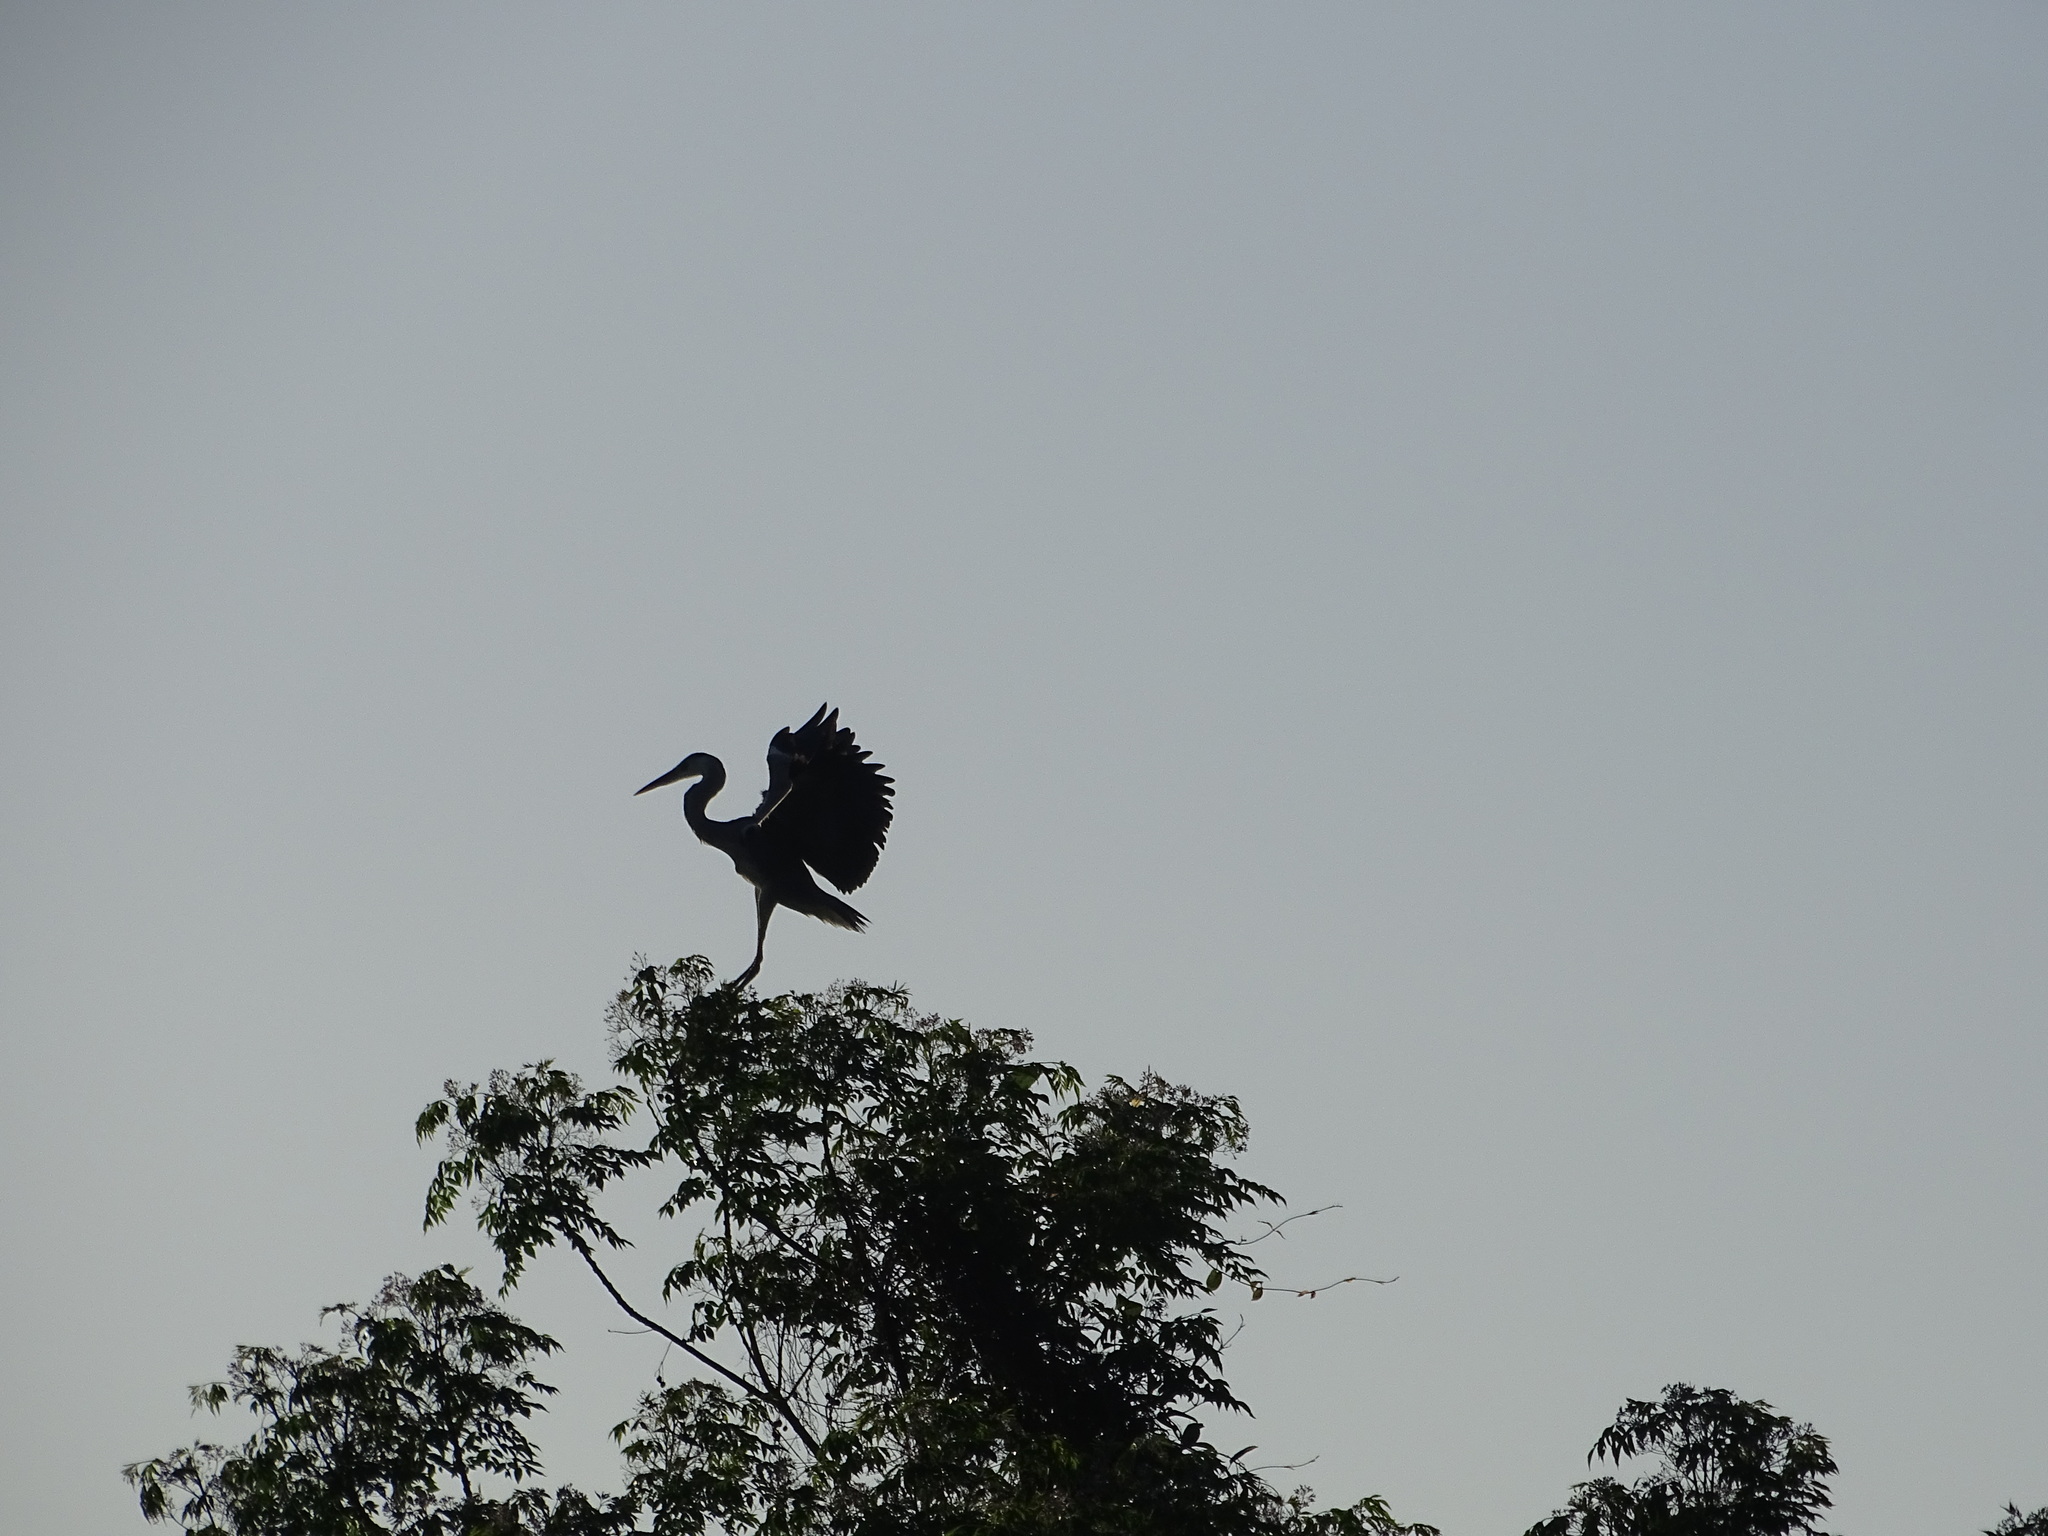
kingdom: Animalia
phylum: Chordata
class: Aves
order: Pelecaniformes
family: Ardeidae
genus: Ardea
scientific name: Ardea cinerea
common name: Grey heron
